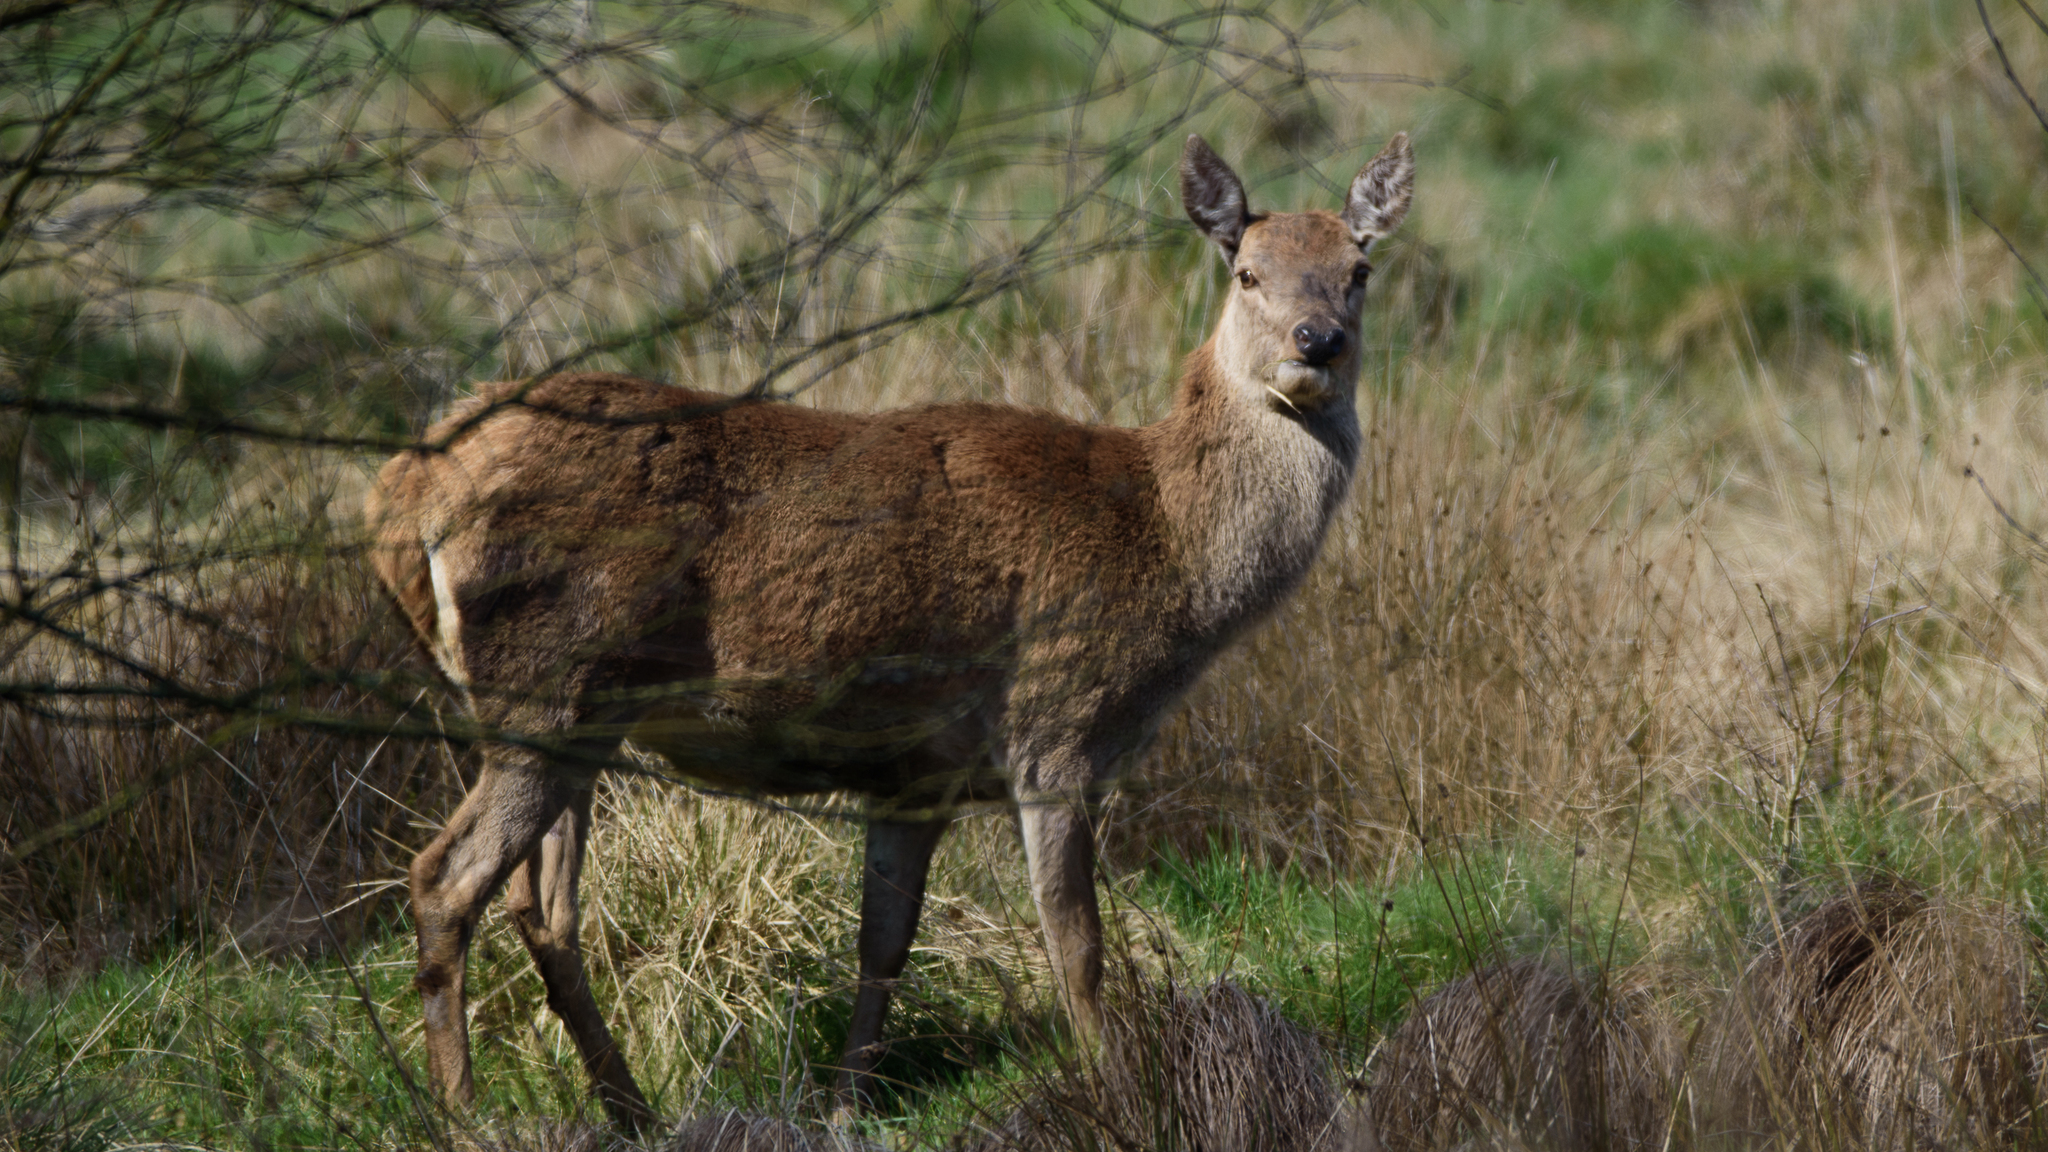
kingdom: Animalia
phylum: Chordata
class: Mammalia
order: Artiodactyla
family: Cervidae
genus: Cervus
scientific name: Cervus elaphus
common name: Red deer
